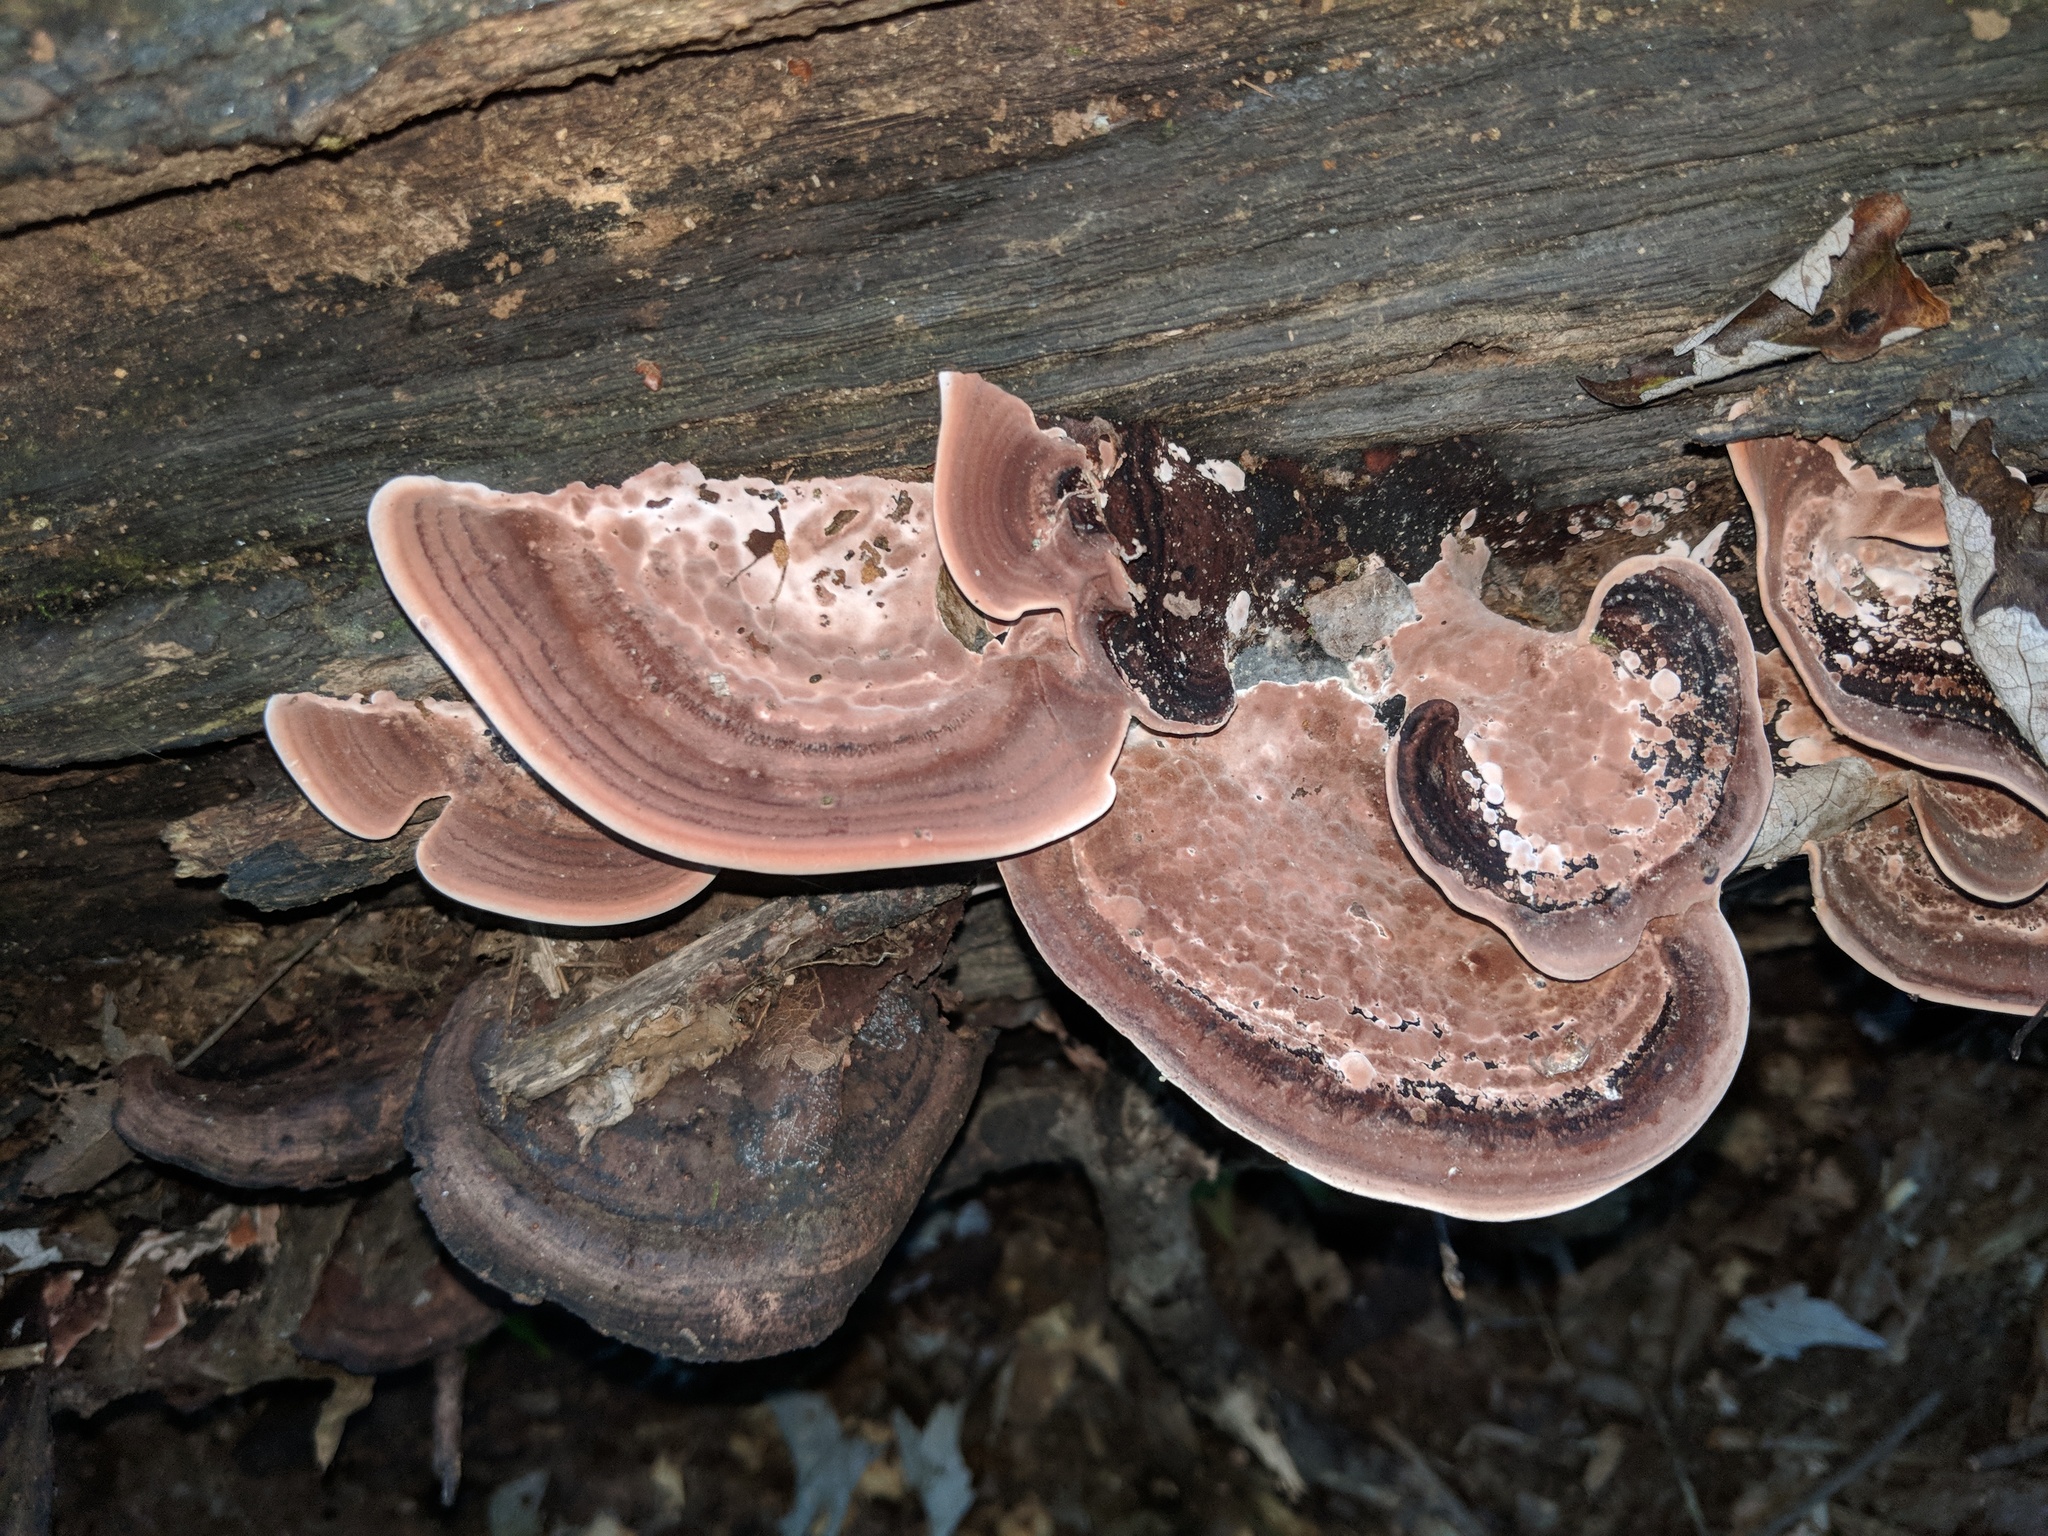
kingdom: Fungi
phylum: Basidiomycota
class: Agaricomycetes
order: Polyporales
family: Steccherinaceae
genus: Nigroporus
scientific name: Nigroporus vinosus
